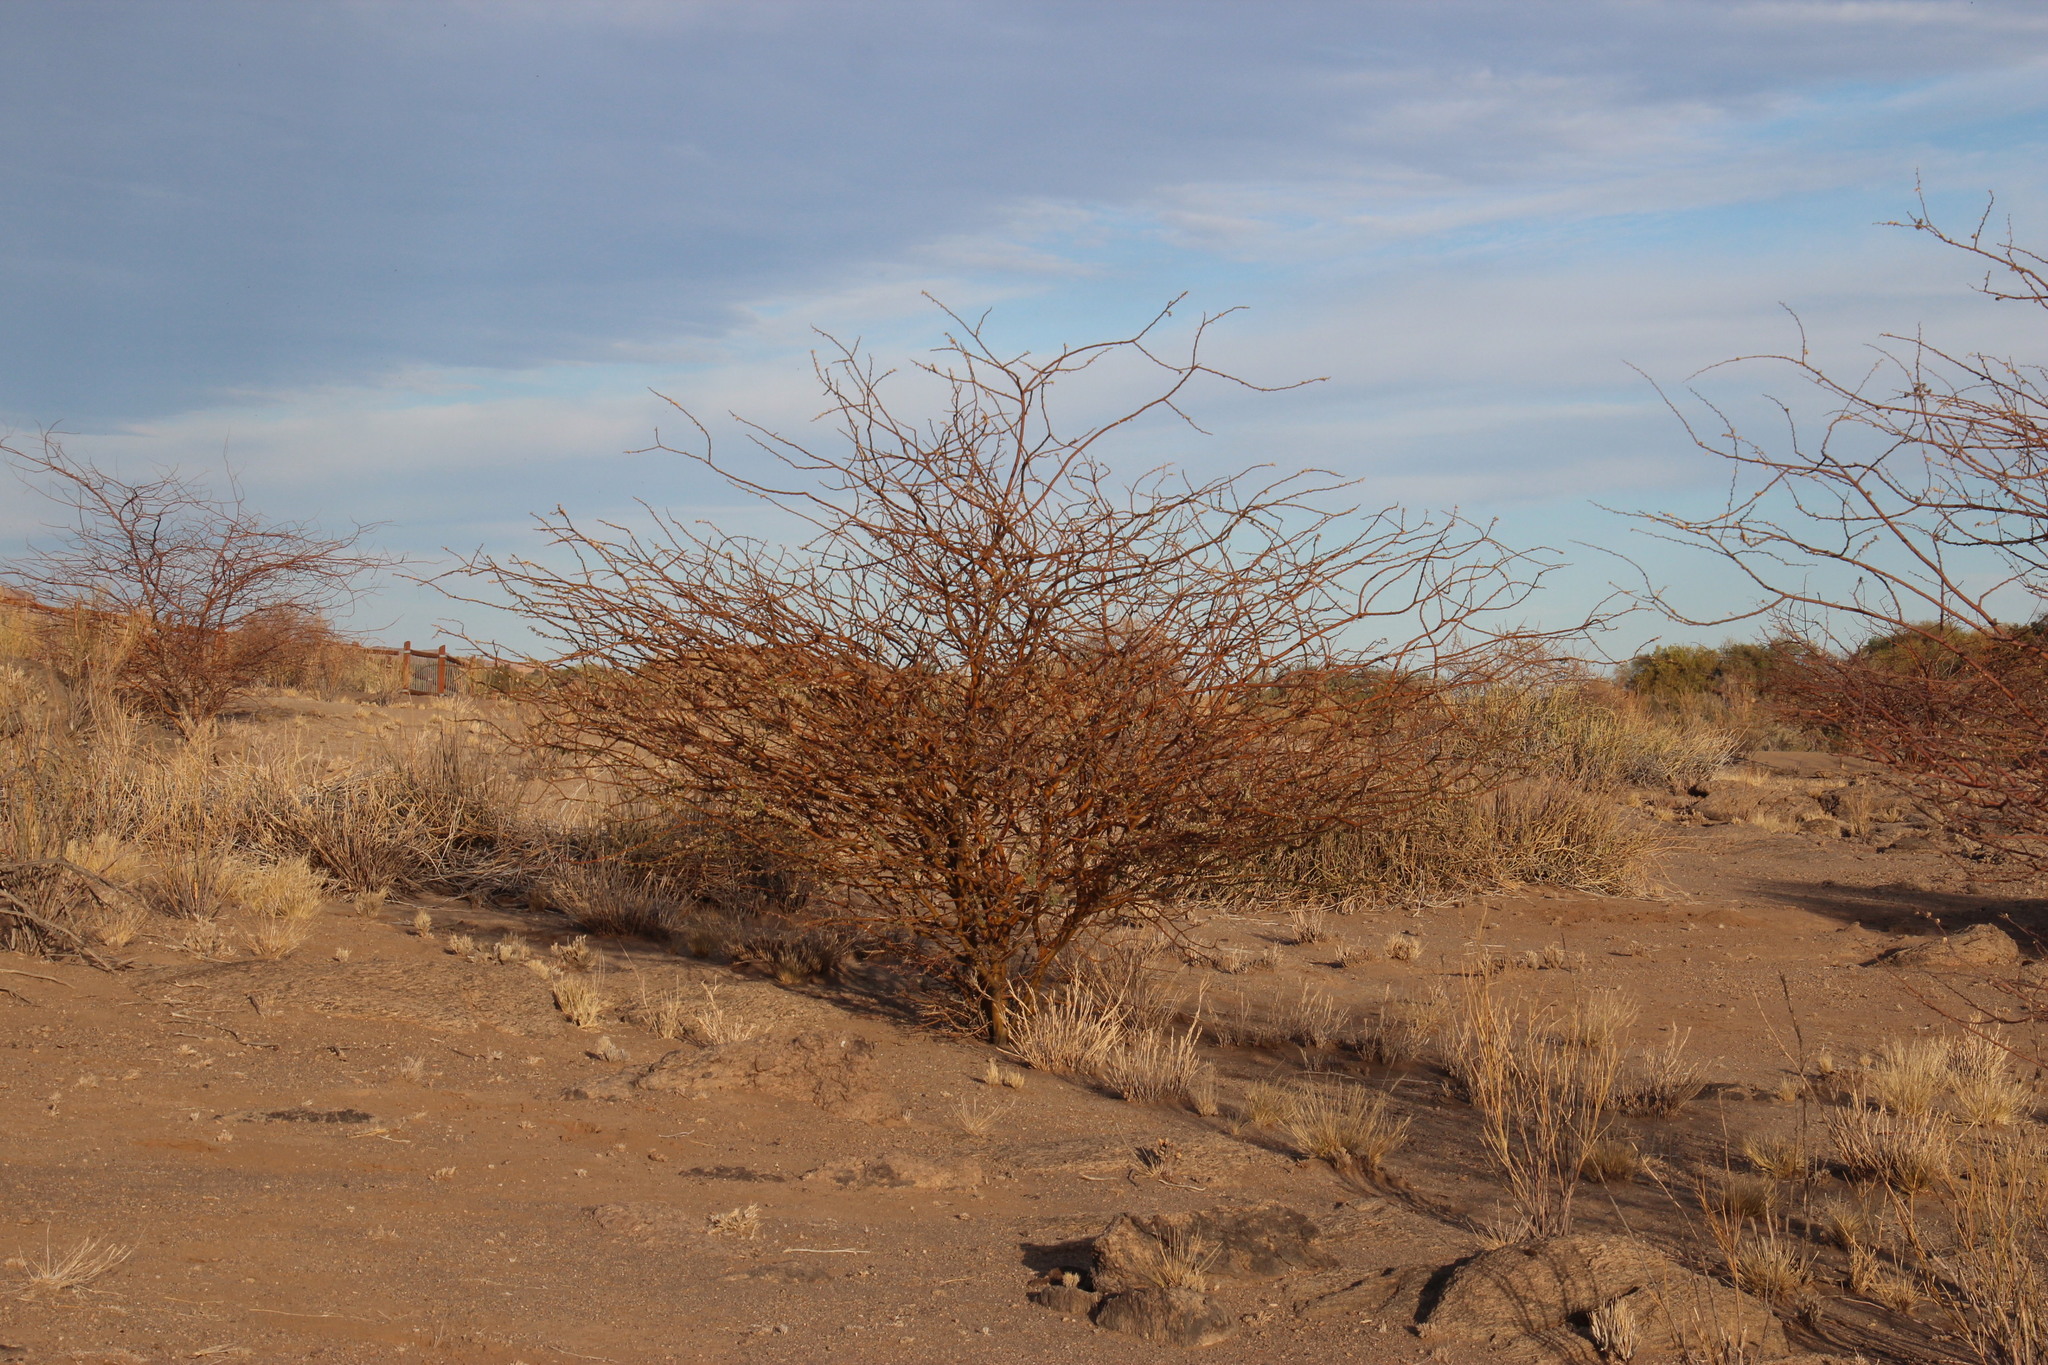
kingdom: Plantae
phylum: Tracheophyta
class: Magnoliopsida
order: Fabales
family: Fabaceae
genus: Senegalia
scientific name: Senegalia mellifera
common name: Hookthorn
